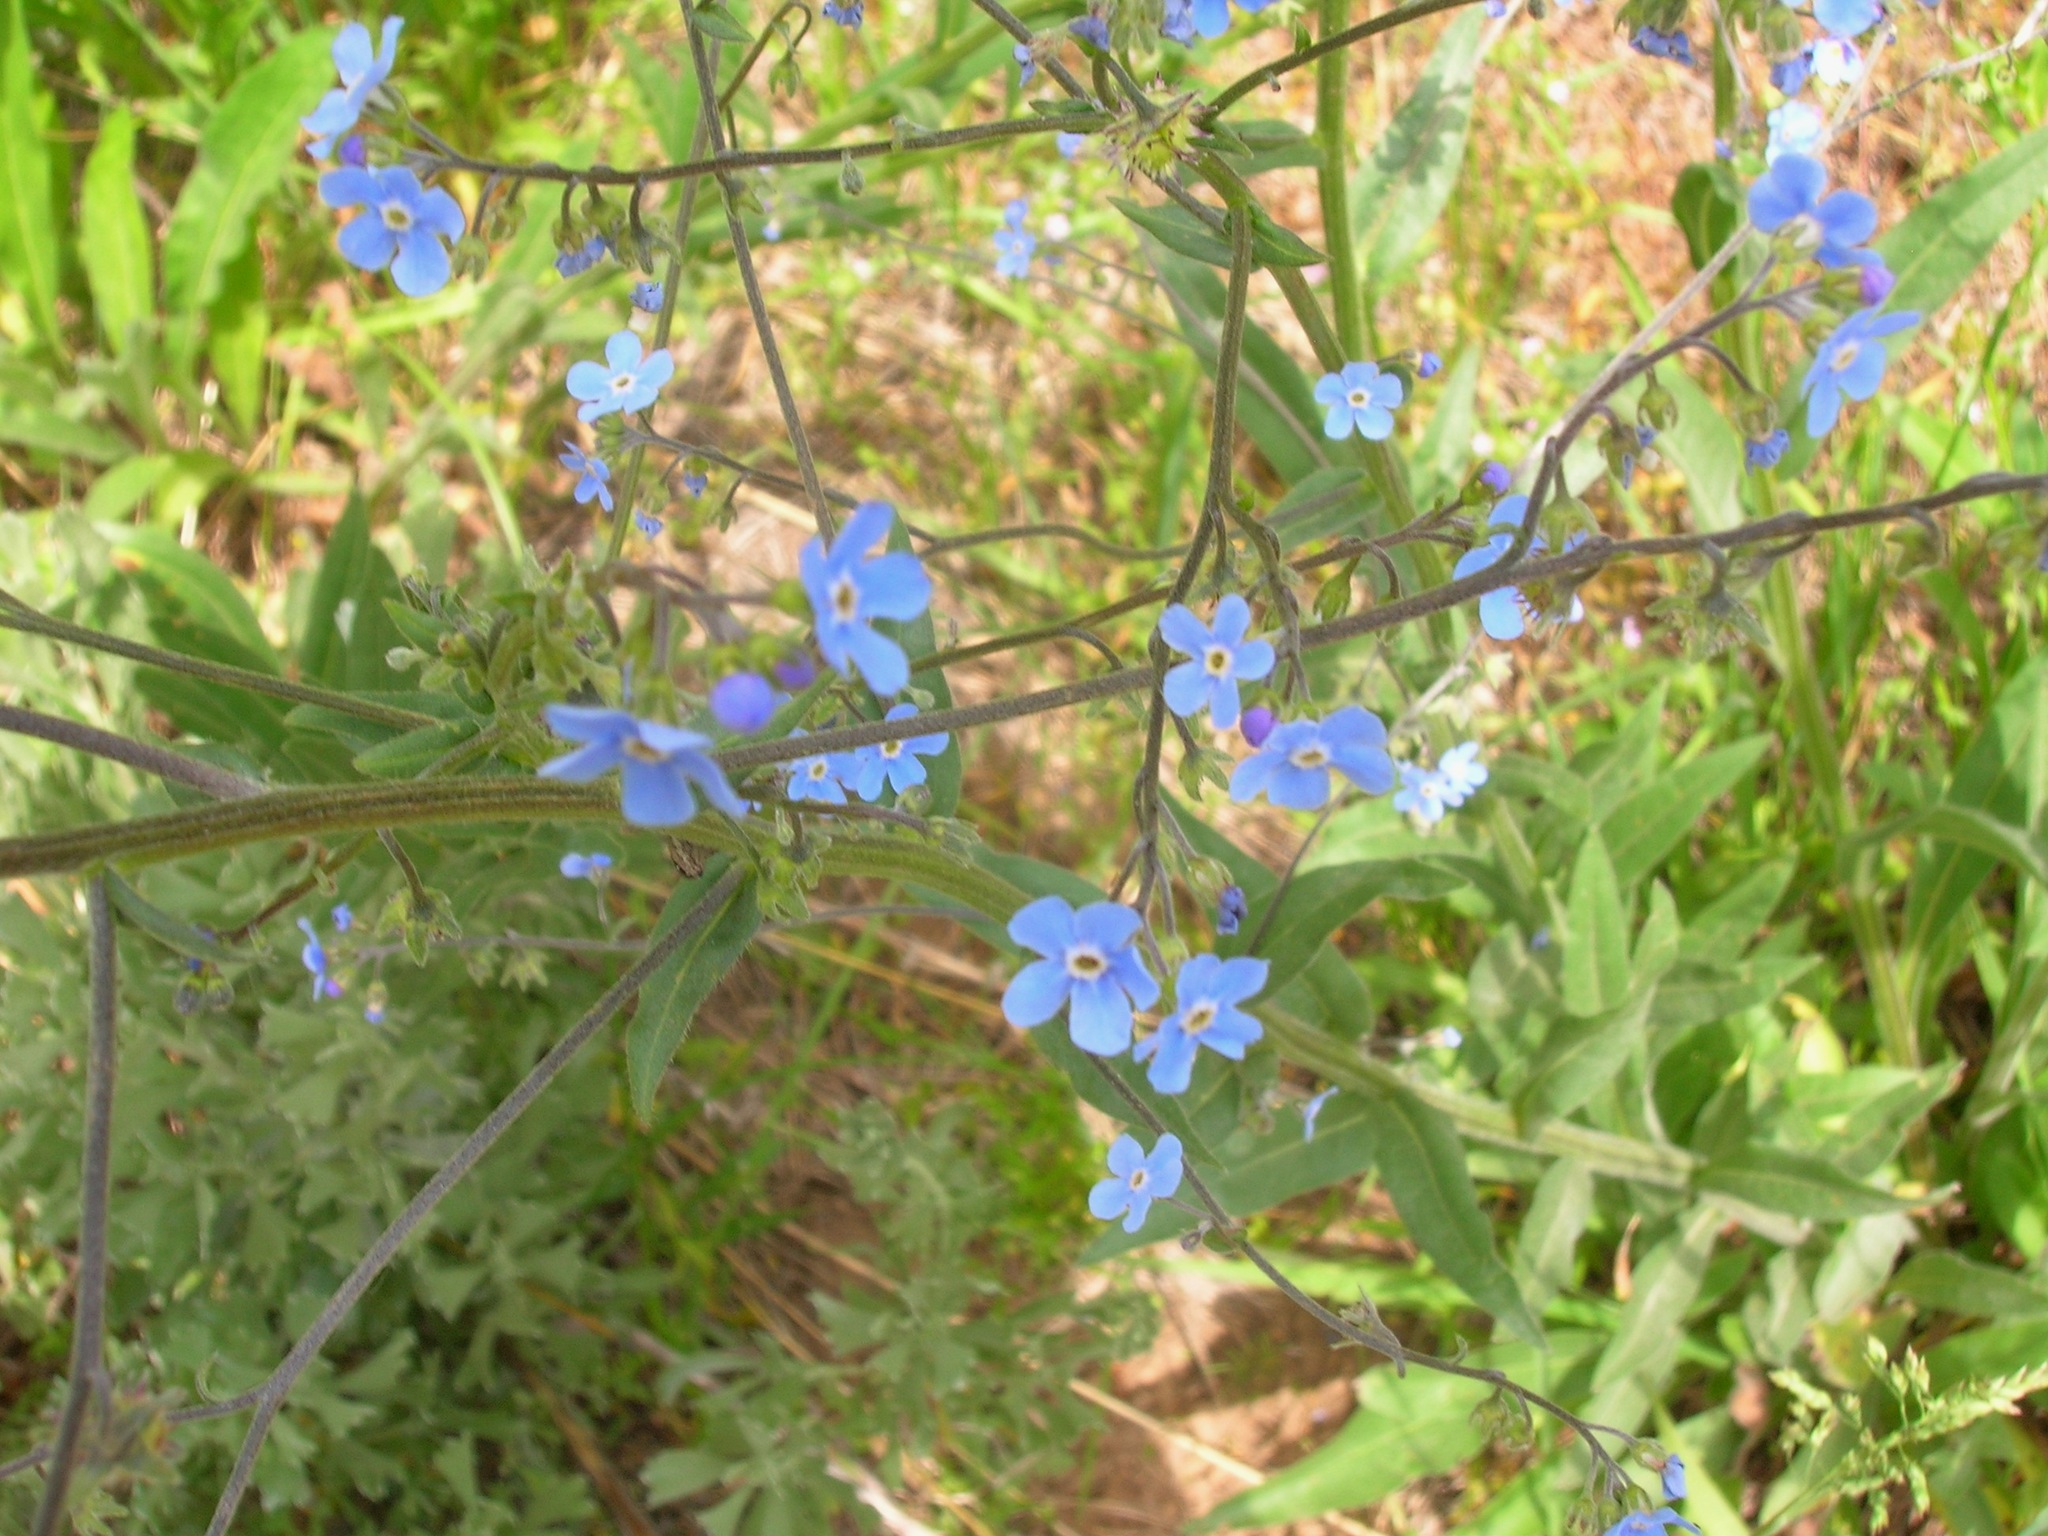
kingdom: Plantae
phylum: Tracheophyta
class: Magnoliopsida
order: Boraginales
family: Boraginaceae
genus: Hackelia
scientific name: Hackelia micrantha
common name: Meadow stickseed
